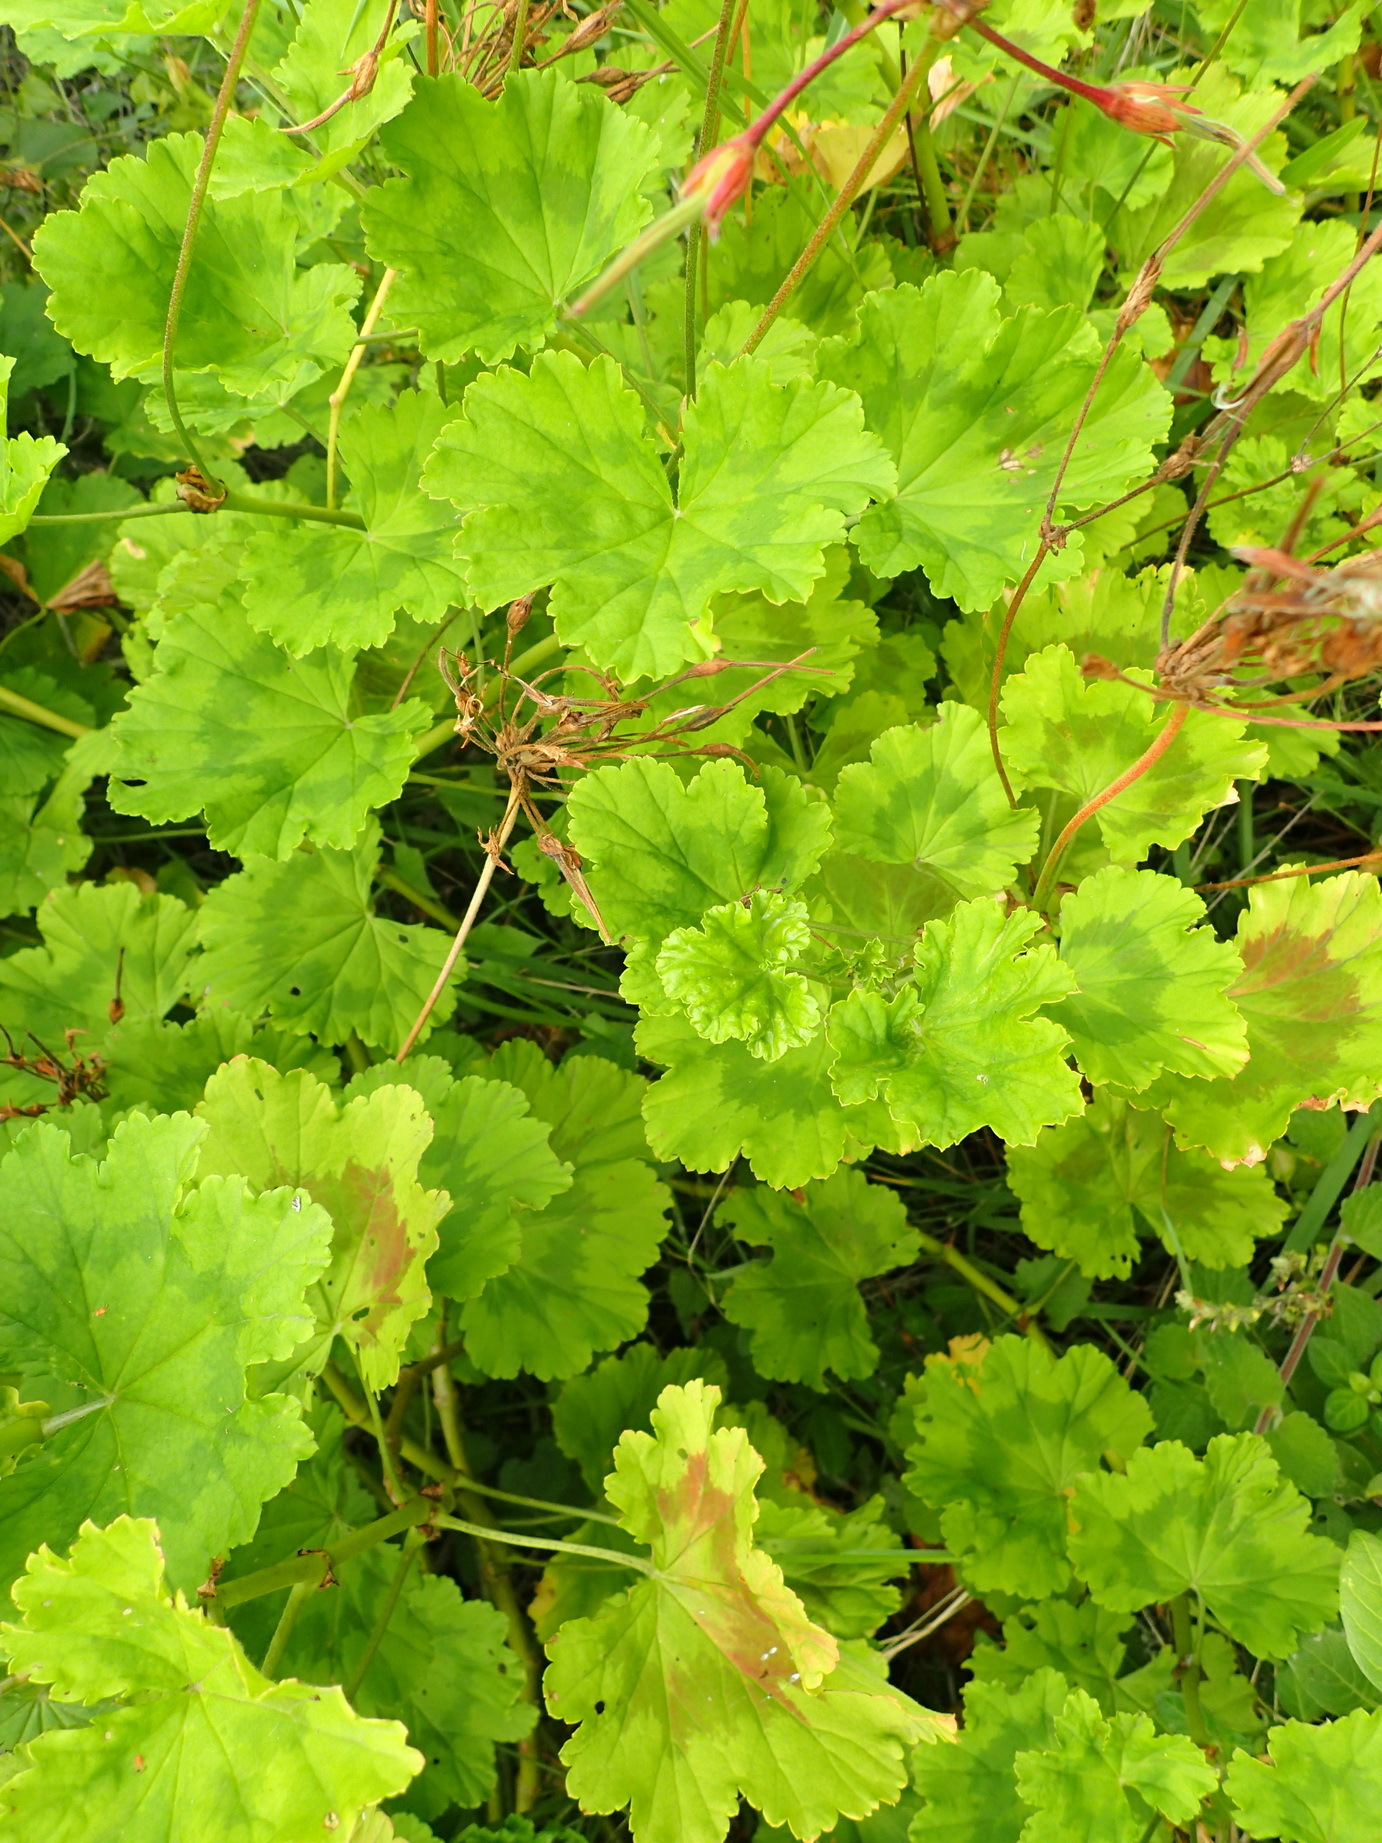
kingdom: Plantae
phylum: Tracheophyta
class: Magnoliopsida
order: Geraniales
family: Geraniaceae
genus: Pelargonium
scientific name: Pelargonium zonale
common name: Horseshoe geranium
